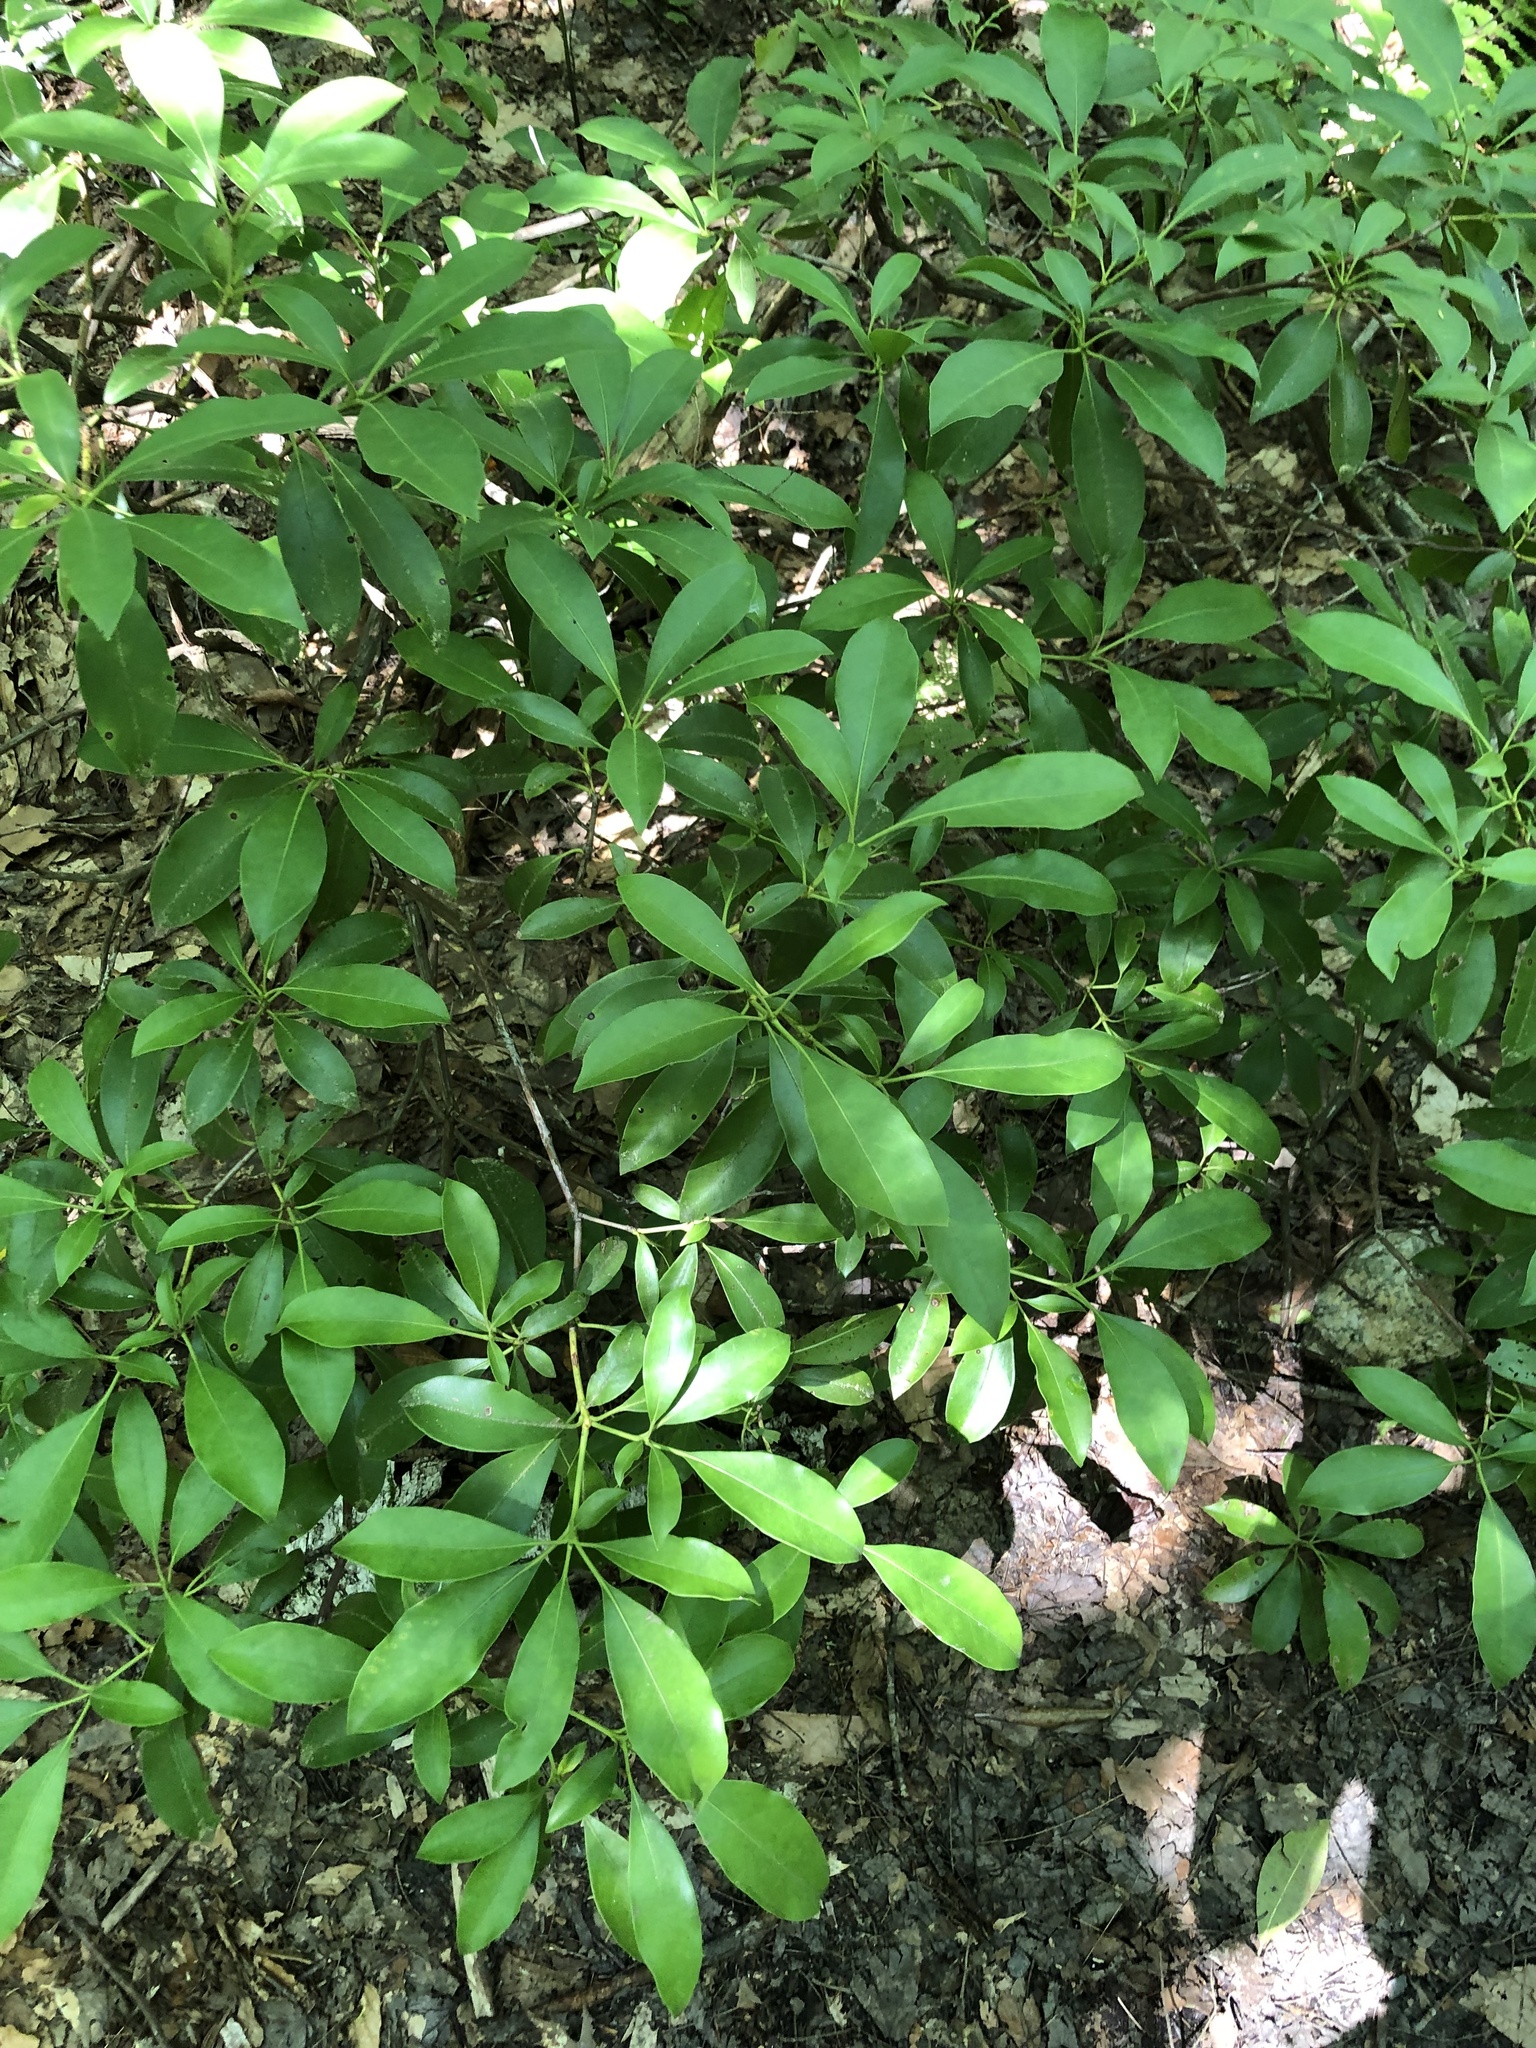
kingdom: Plantae
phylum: Tracheophyta
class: Magnoliopsida
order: Ericales
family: Ericaceae
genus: Kalmia
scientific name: Kalmia latifolia
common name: Mountain-laurel
